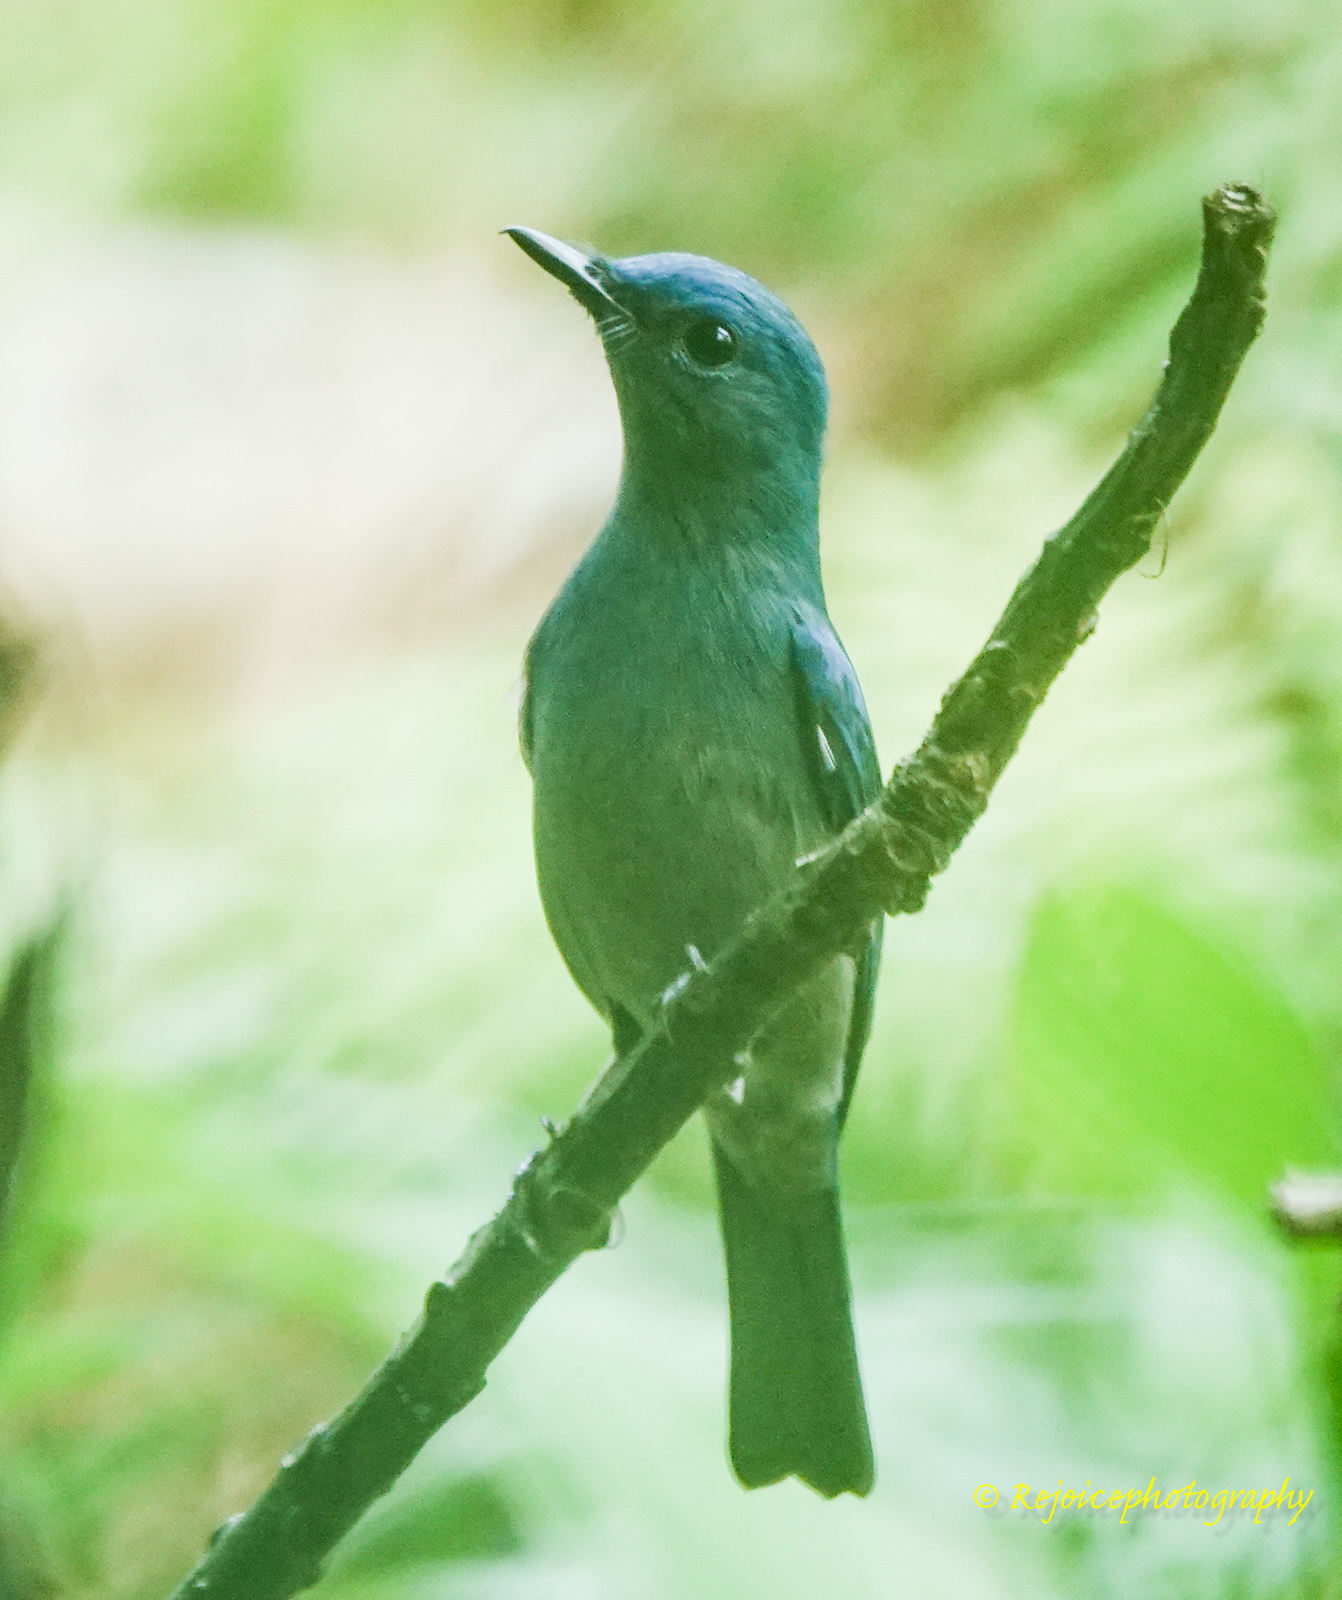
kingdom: Animalia
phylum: Chordata
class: Aves
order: Passeriformes
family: Muscicapidae
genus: Cyornis
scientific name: Cyornis unicolor
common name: Pale blue flycatcher
